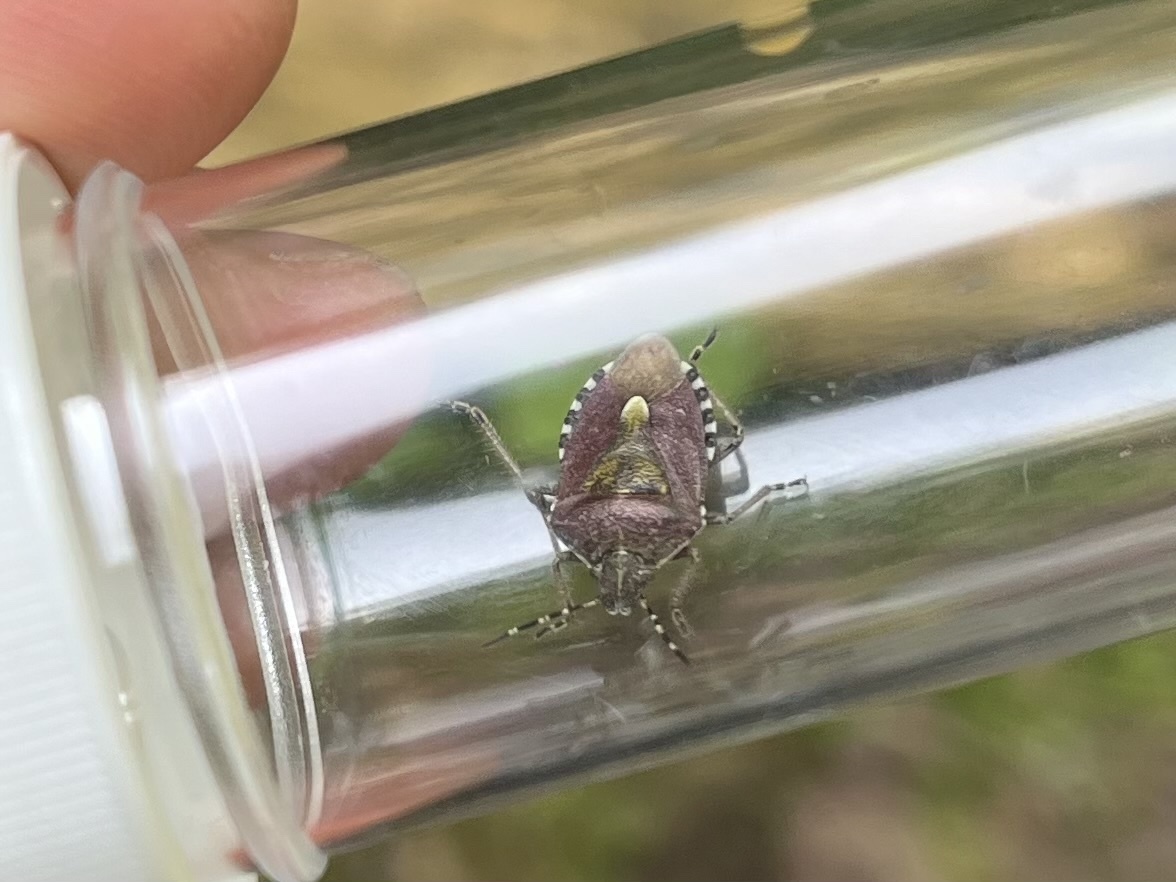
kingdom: Animalia
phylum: Arthropoda
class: Insecta
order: Hemiptera
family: Pentatomidae
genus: Dolycoris
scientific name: Dolycoris baccarum
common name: Sloe bug
